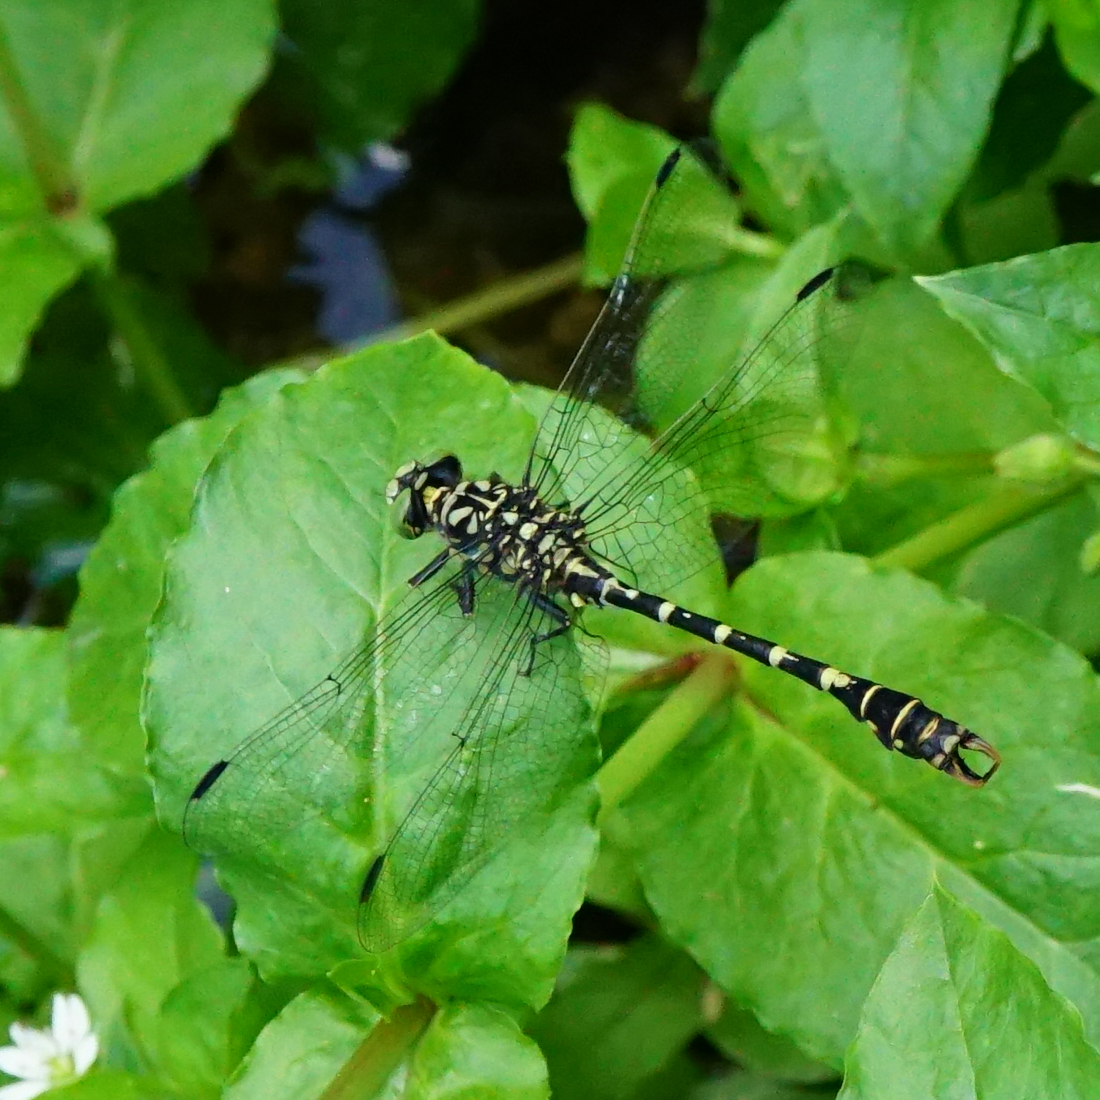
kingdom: Animalia
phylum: Arthropoda
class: Insecta
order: Odonata
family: Gomphidae
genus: Onychogomphus
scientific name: Onychogomphus forcipatus
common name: Small pincertail
